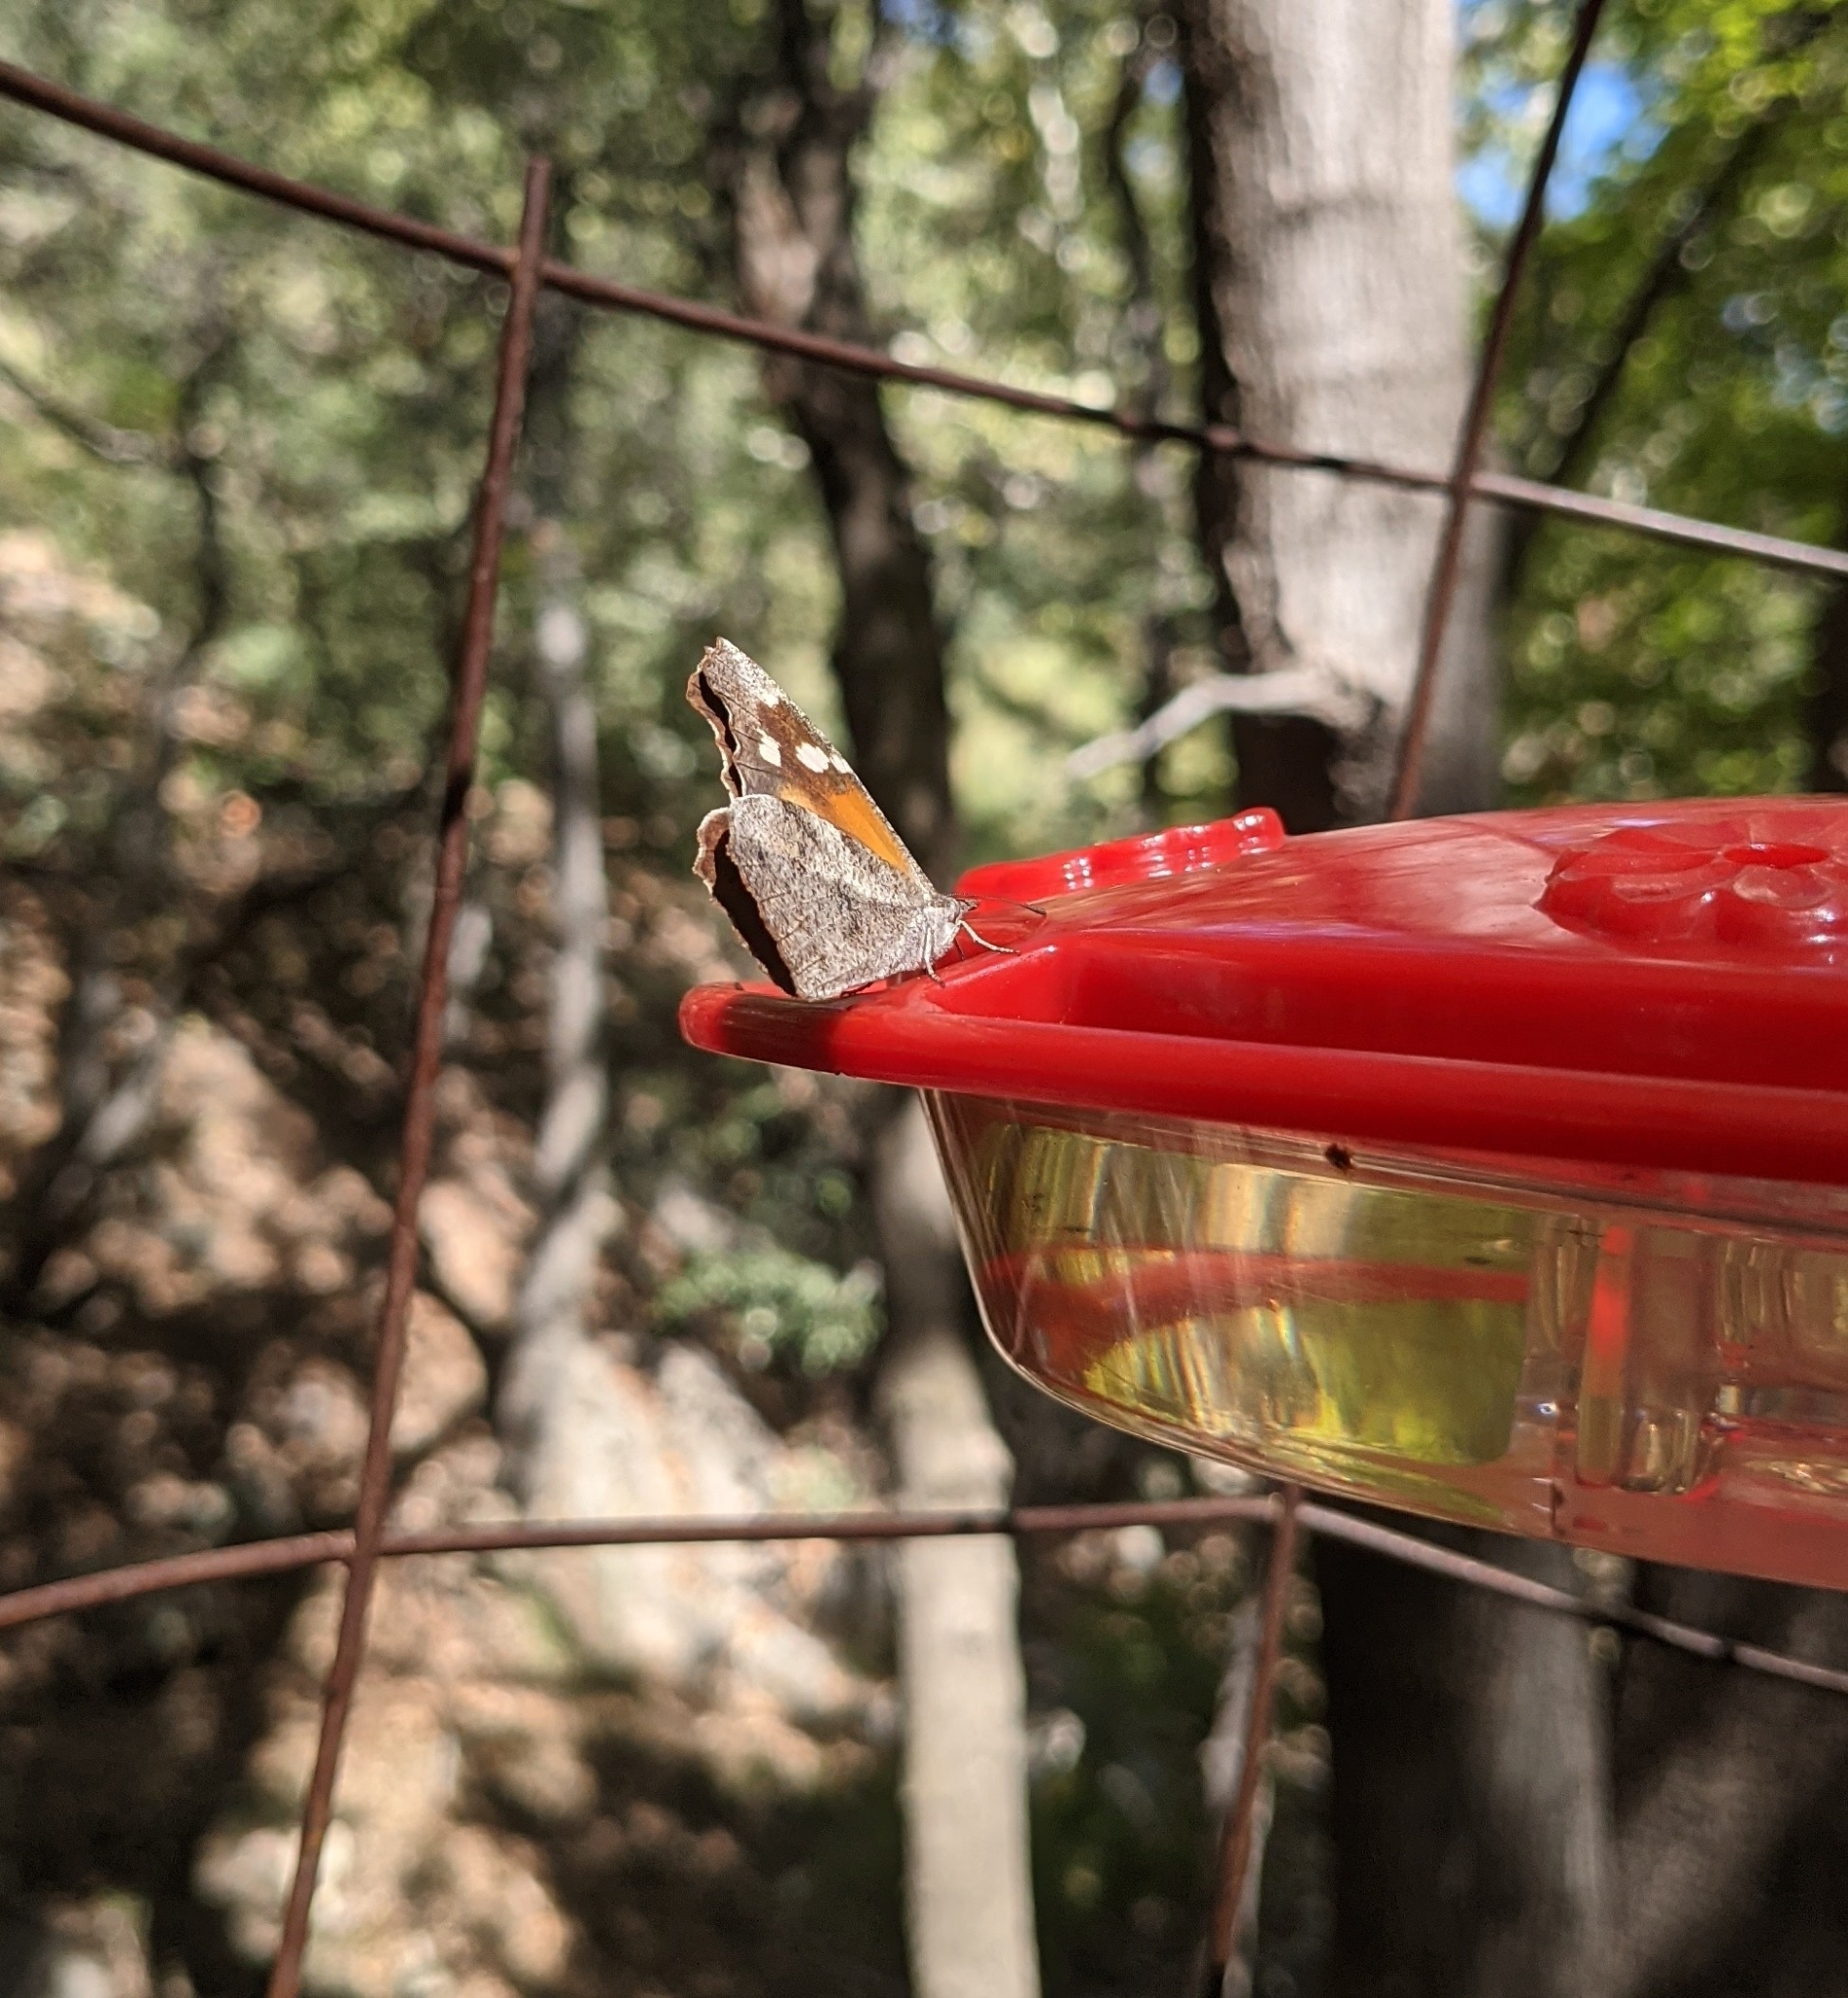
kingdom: Animalia
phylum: Arthropoda
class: Insecta
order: Lepidoptera
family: Nymphalidae
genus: Libytheana
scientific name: Libytheana carinenta
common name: American snout
